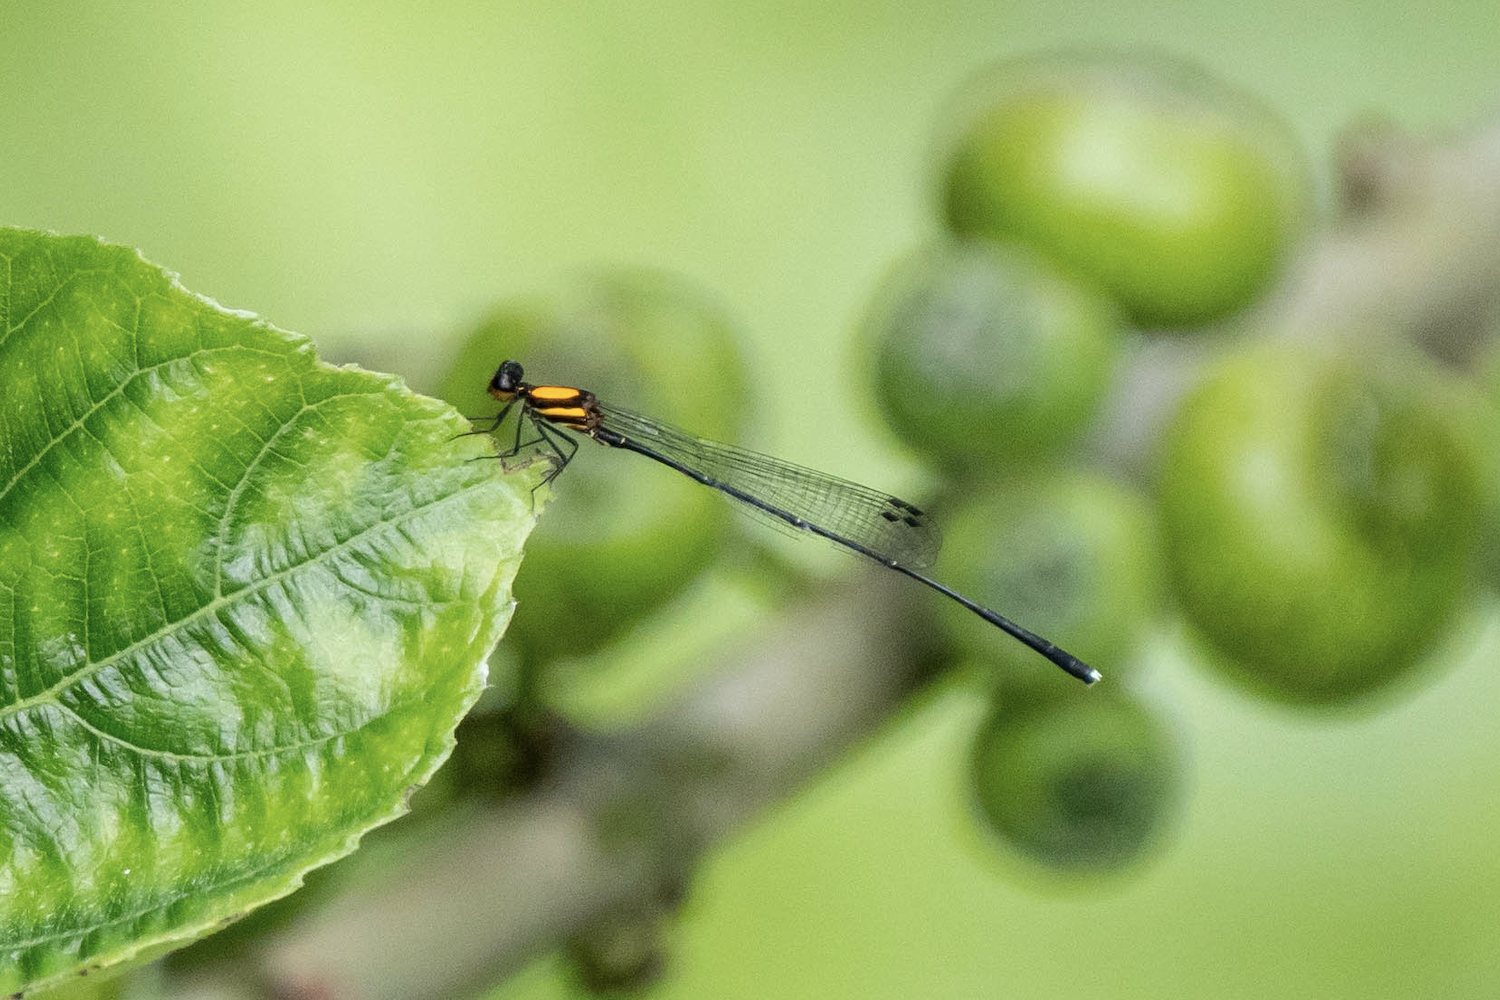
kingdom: Animalia
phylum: Arthropoda
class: Insecta
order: Odonata
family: Platycnemididae
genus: Prodasineura
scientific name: Prodasineura croconota
